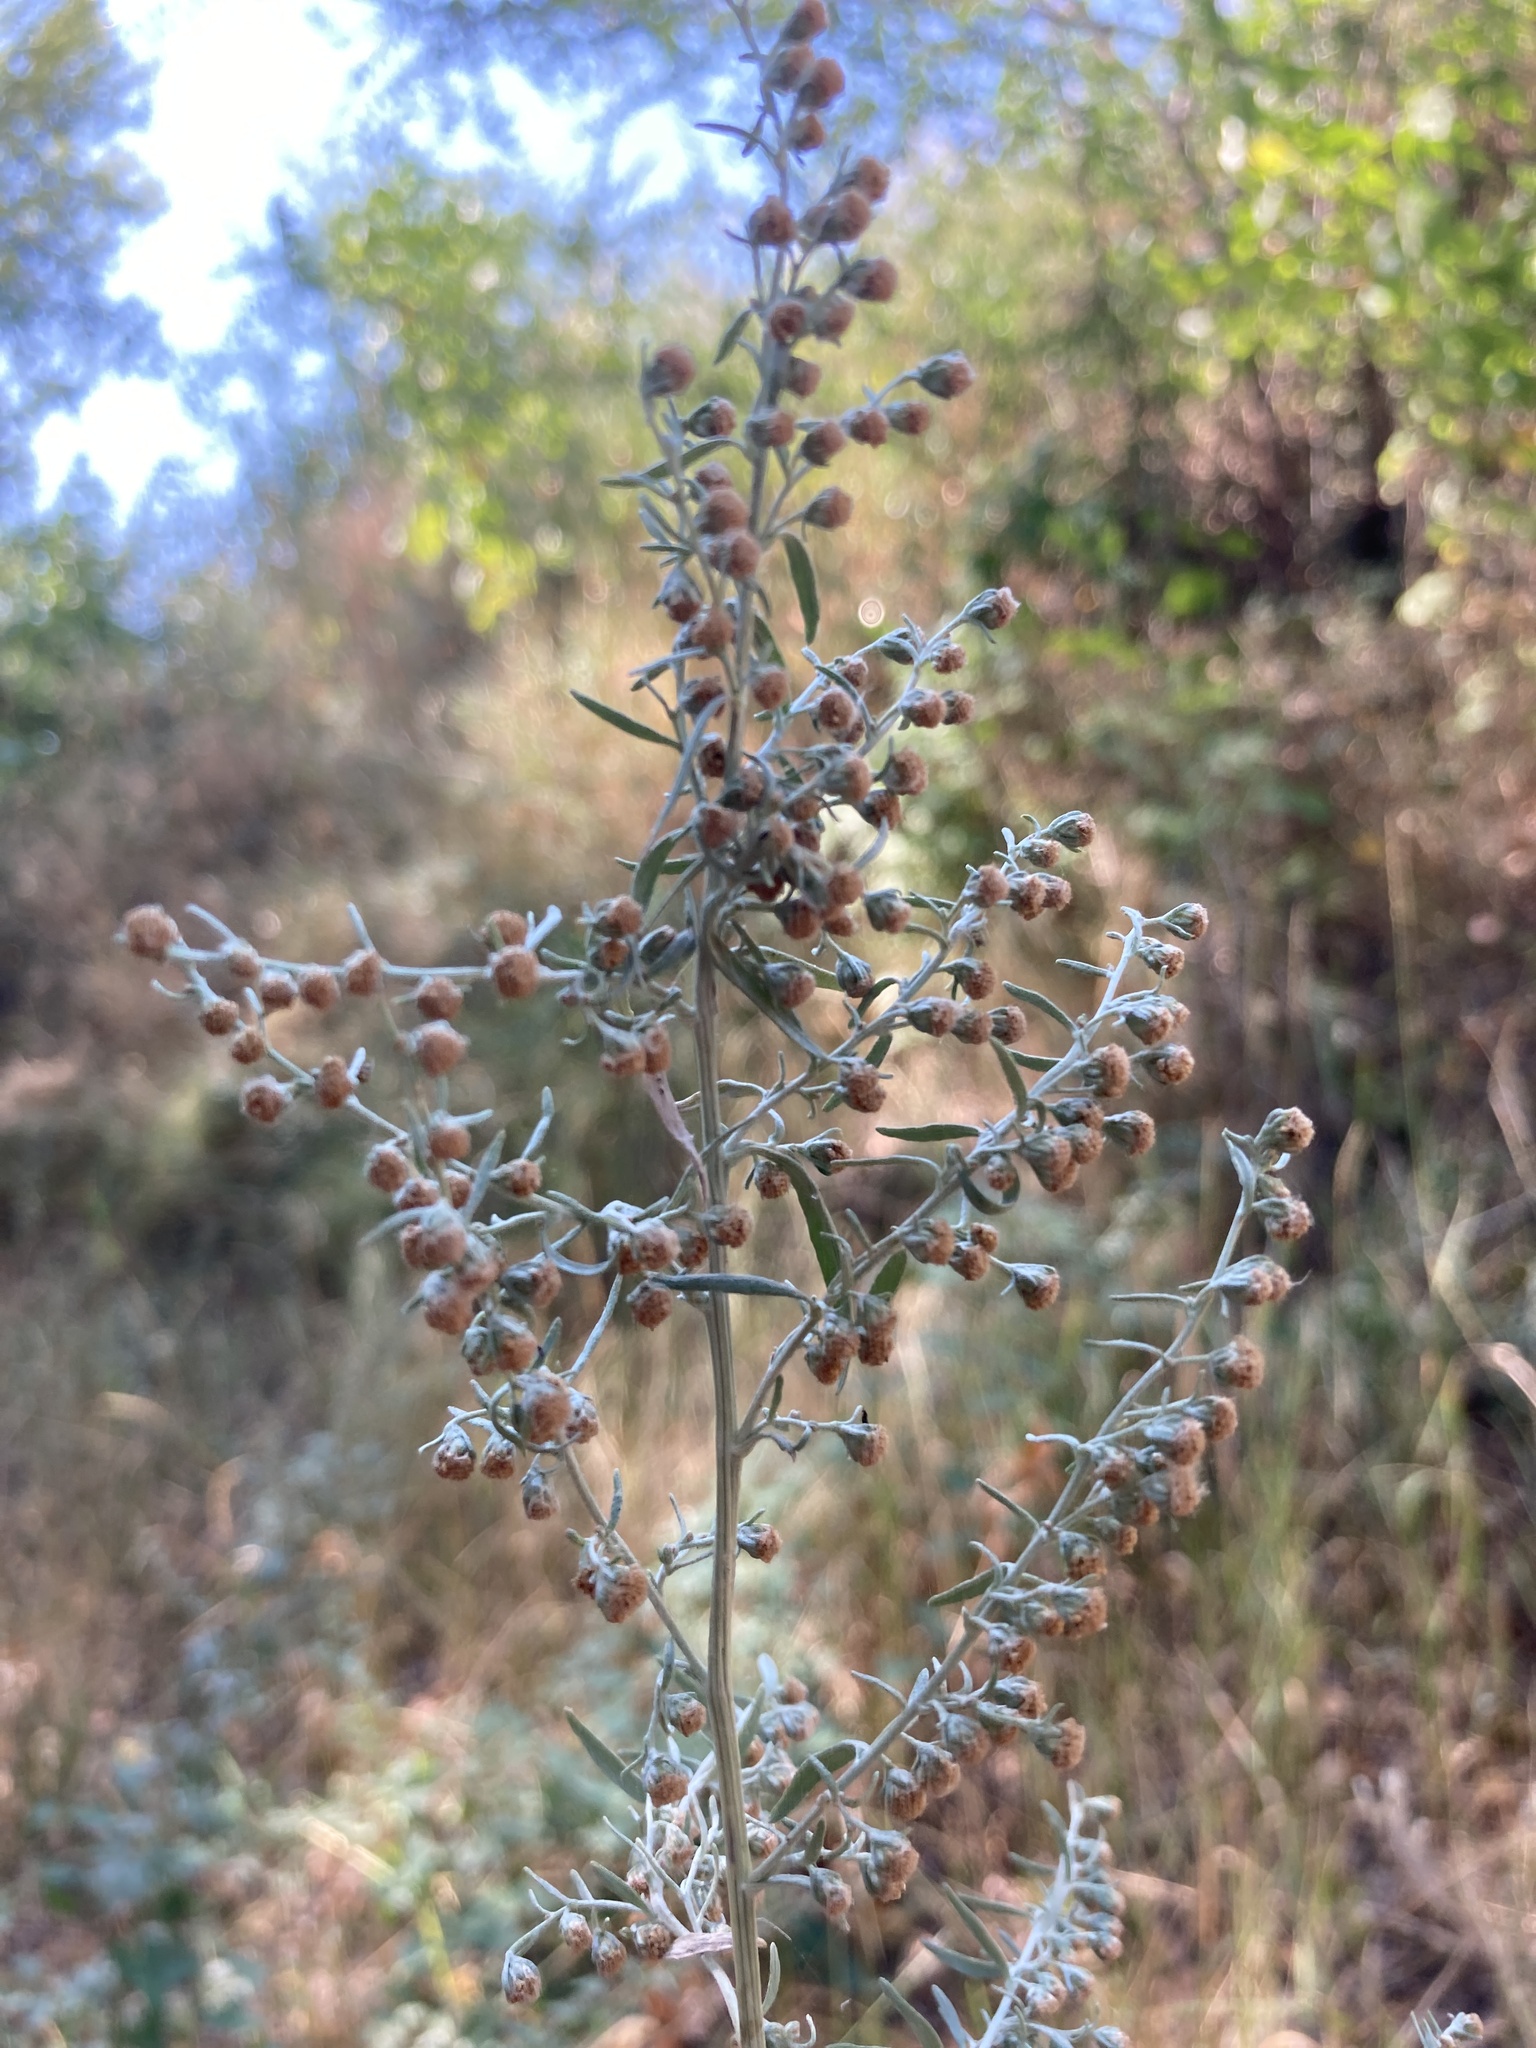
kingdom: Plantae
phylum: Tracheophyta
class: Magnoliopsida
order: Asterales
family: Asteraceae
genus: Artemisia
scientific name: Artemisia absinthium
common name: Wormwood
